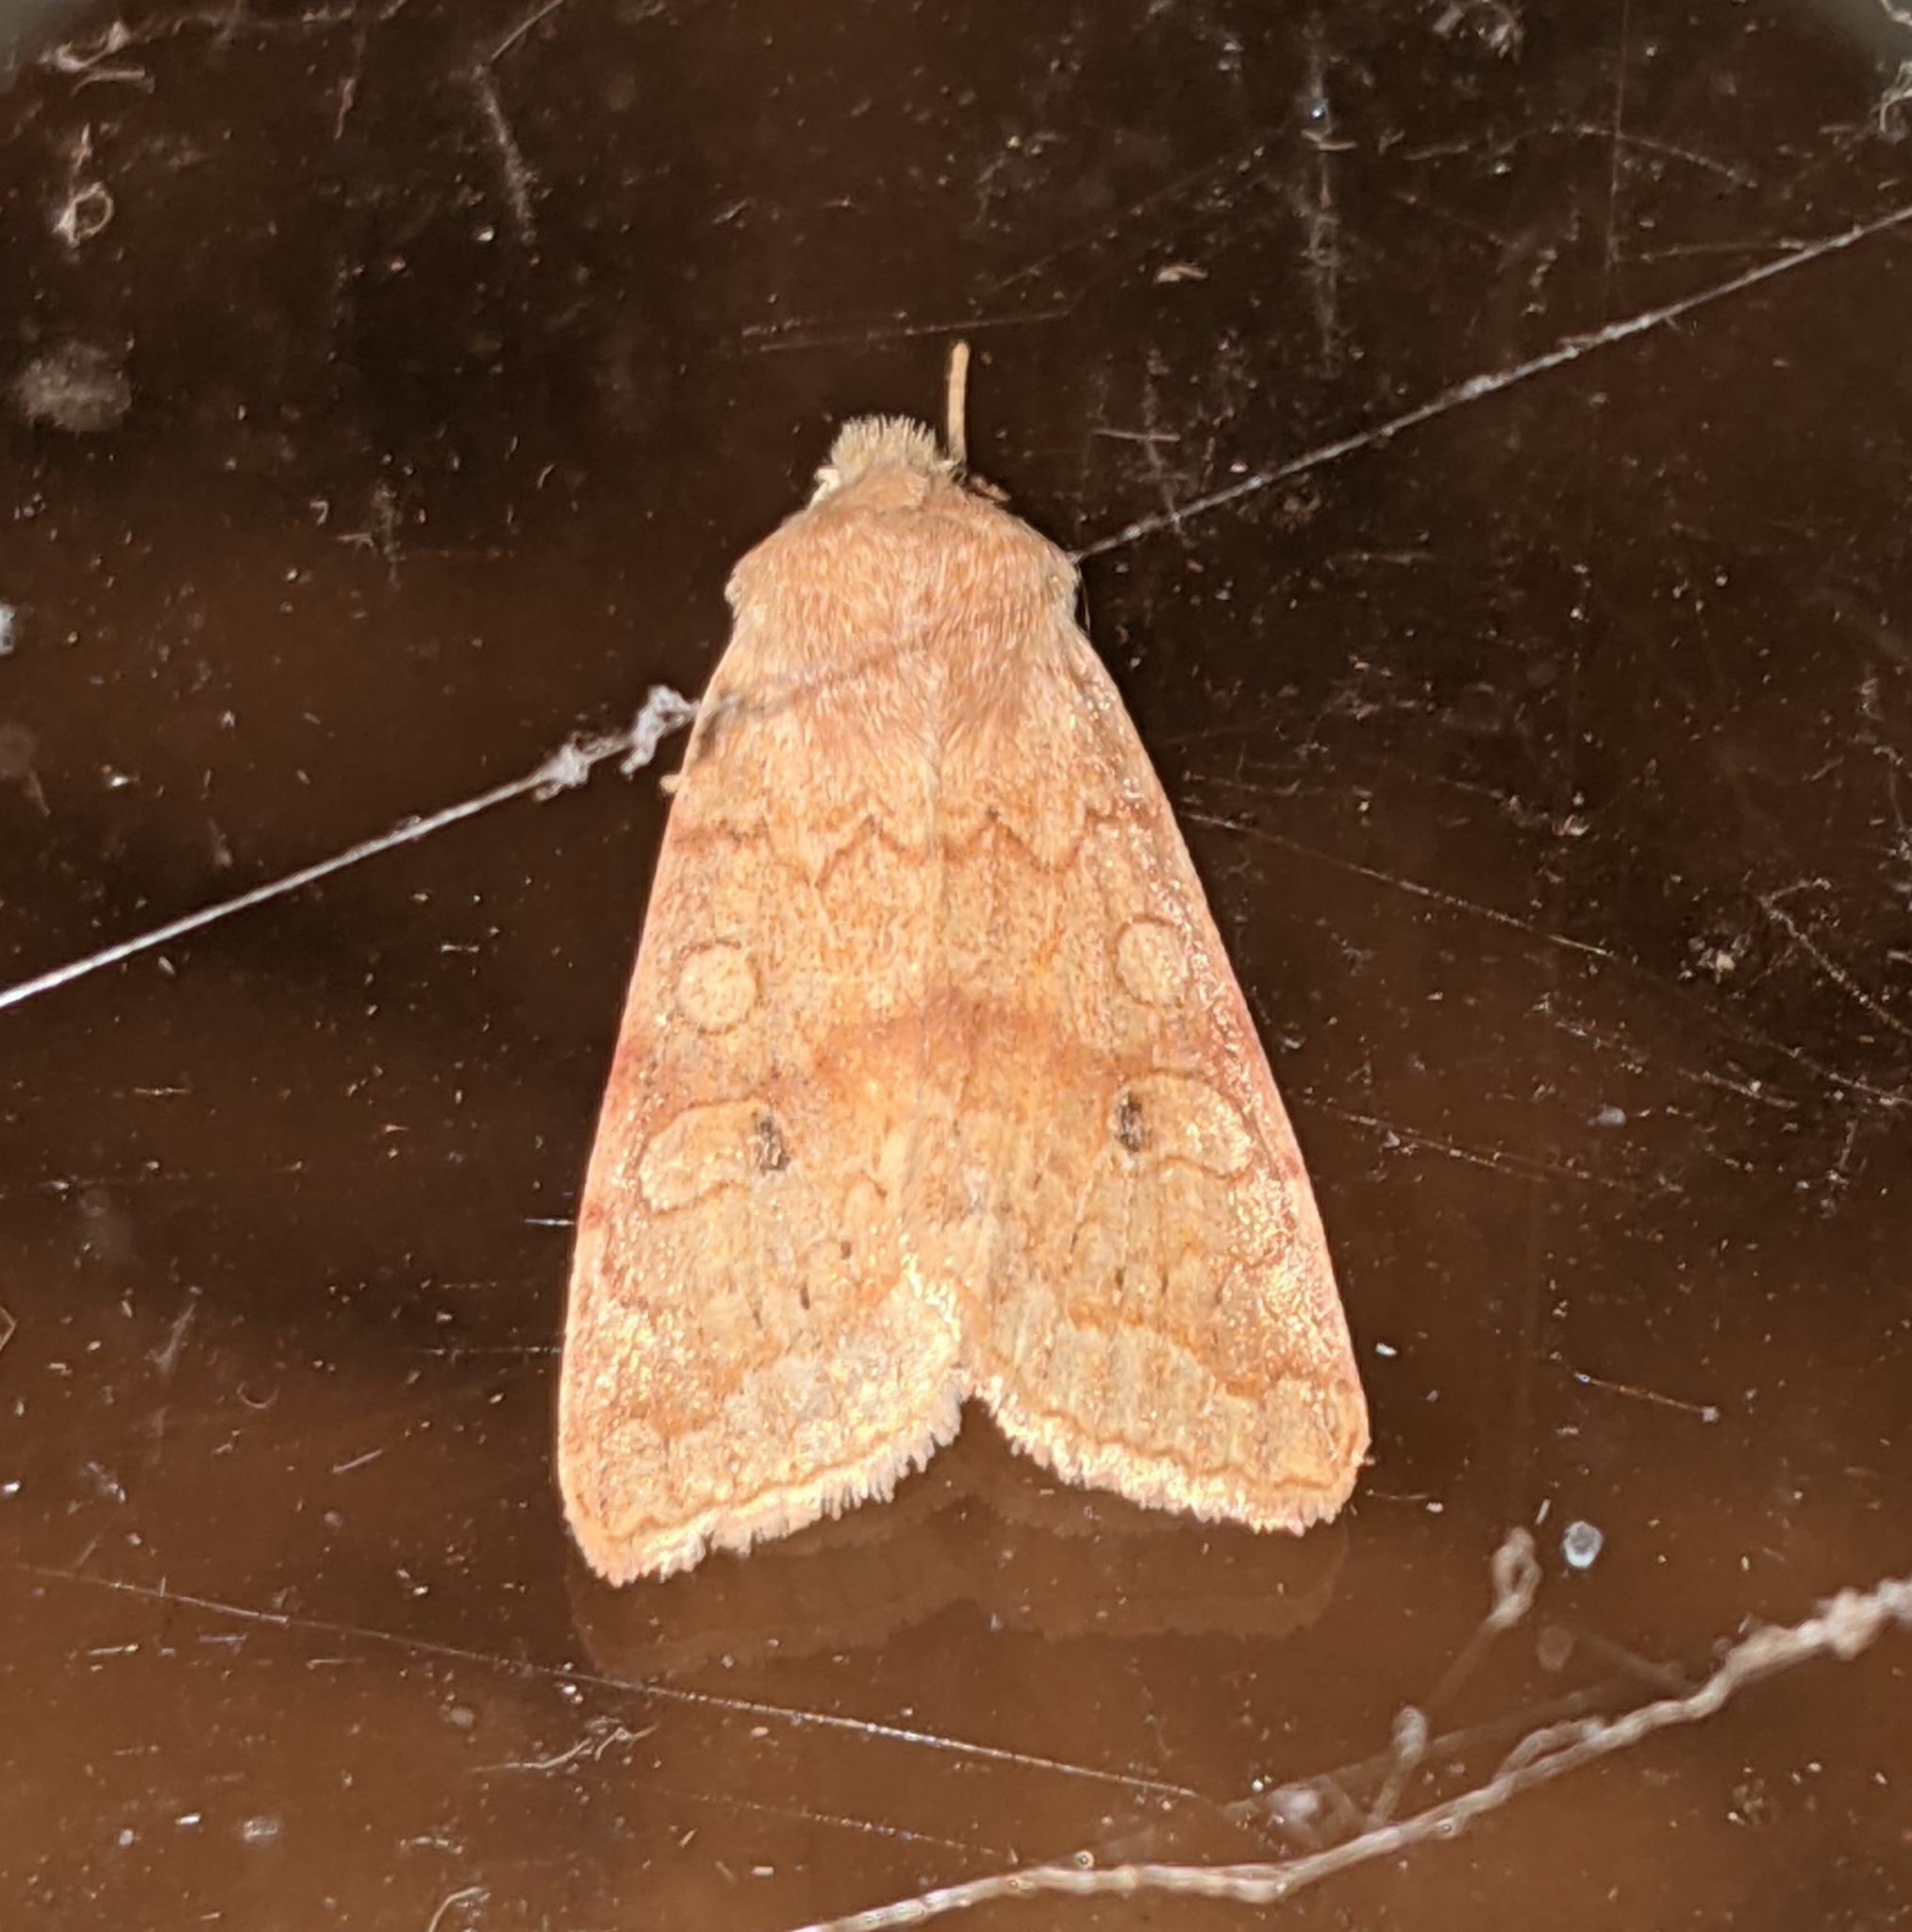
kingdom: Animalia
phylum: Arthropoda
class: Insecta
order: Lepidoptera
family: Noctuidae
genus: Agrochola
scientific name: Agrochola decipiens
